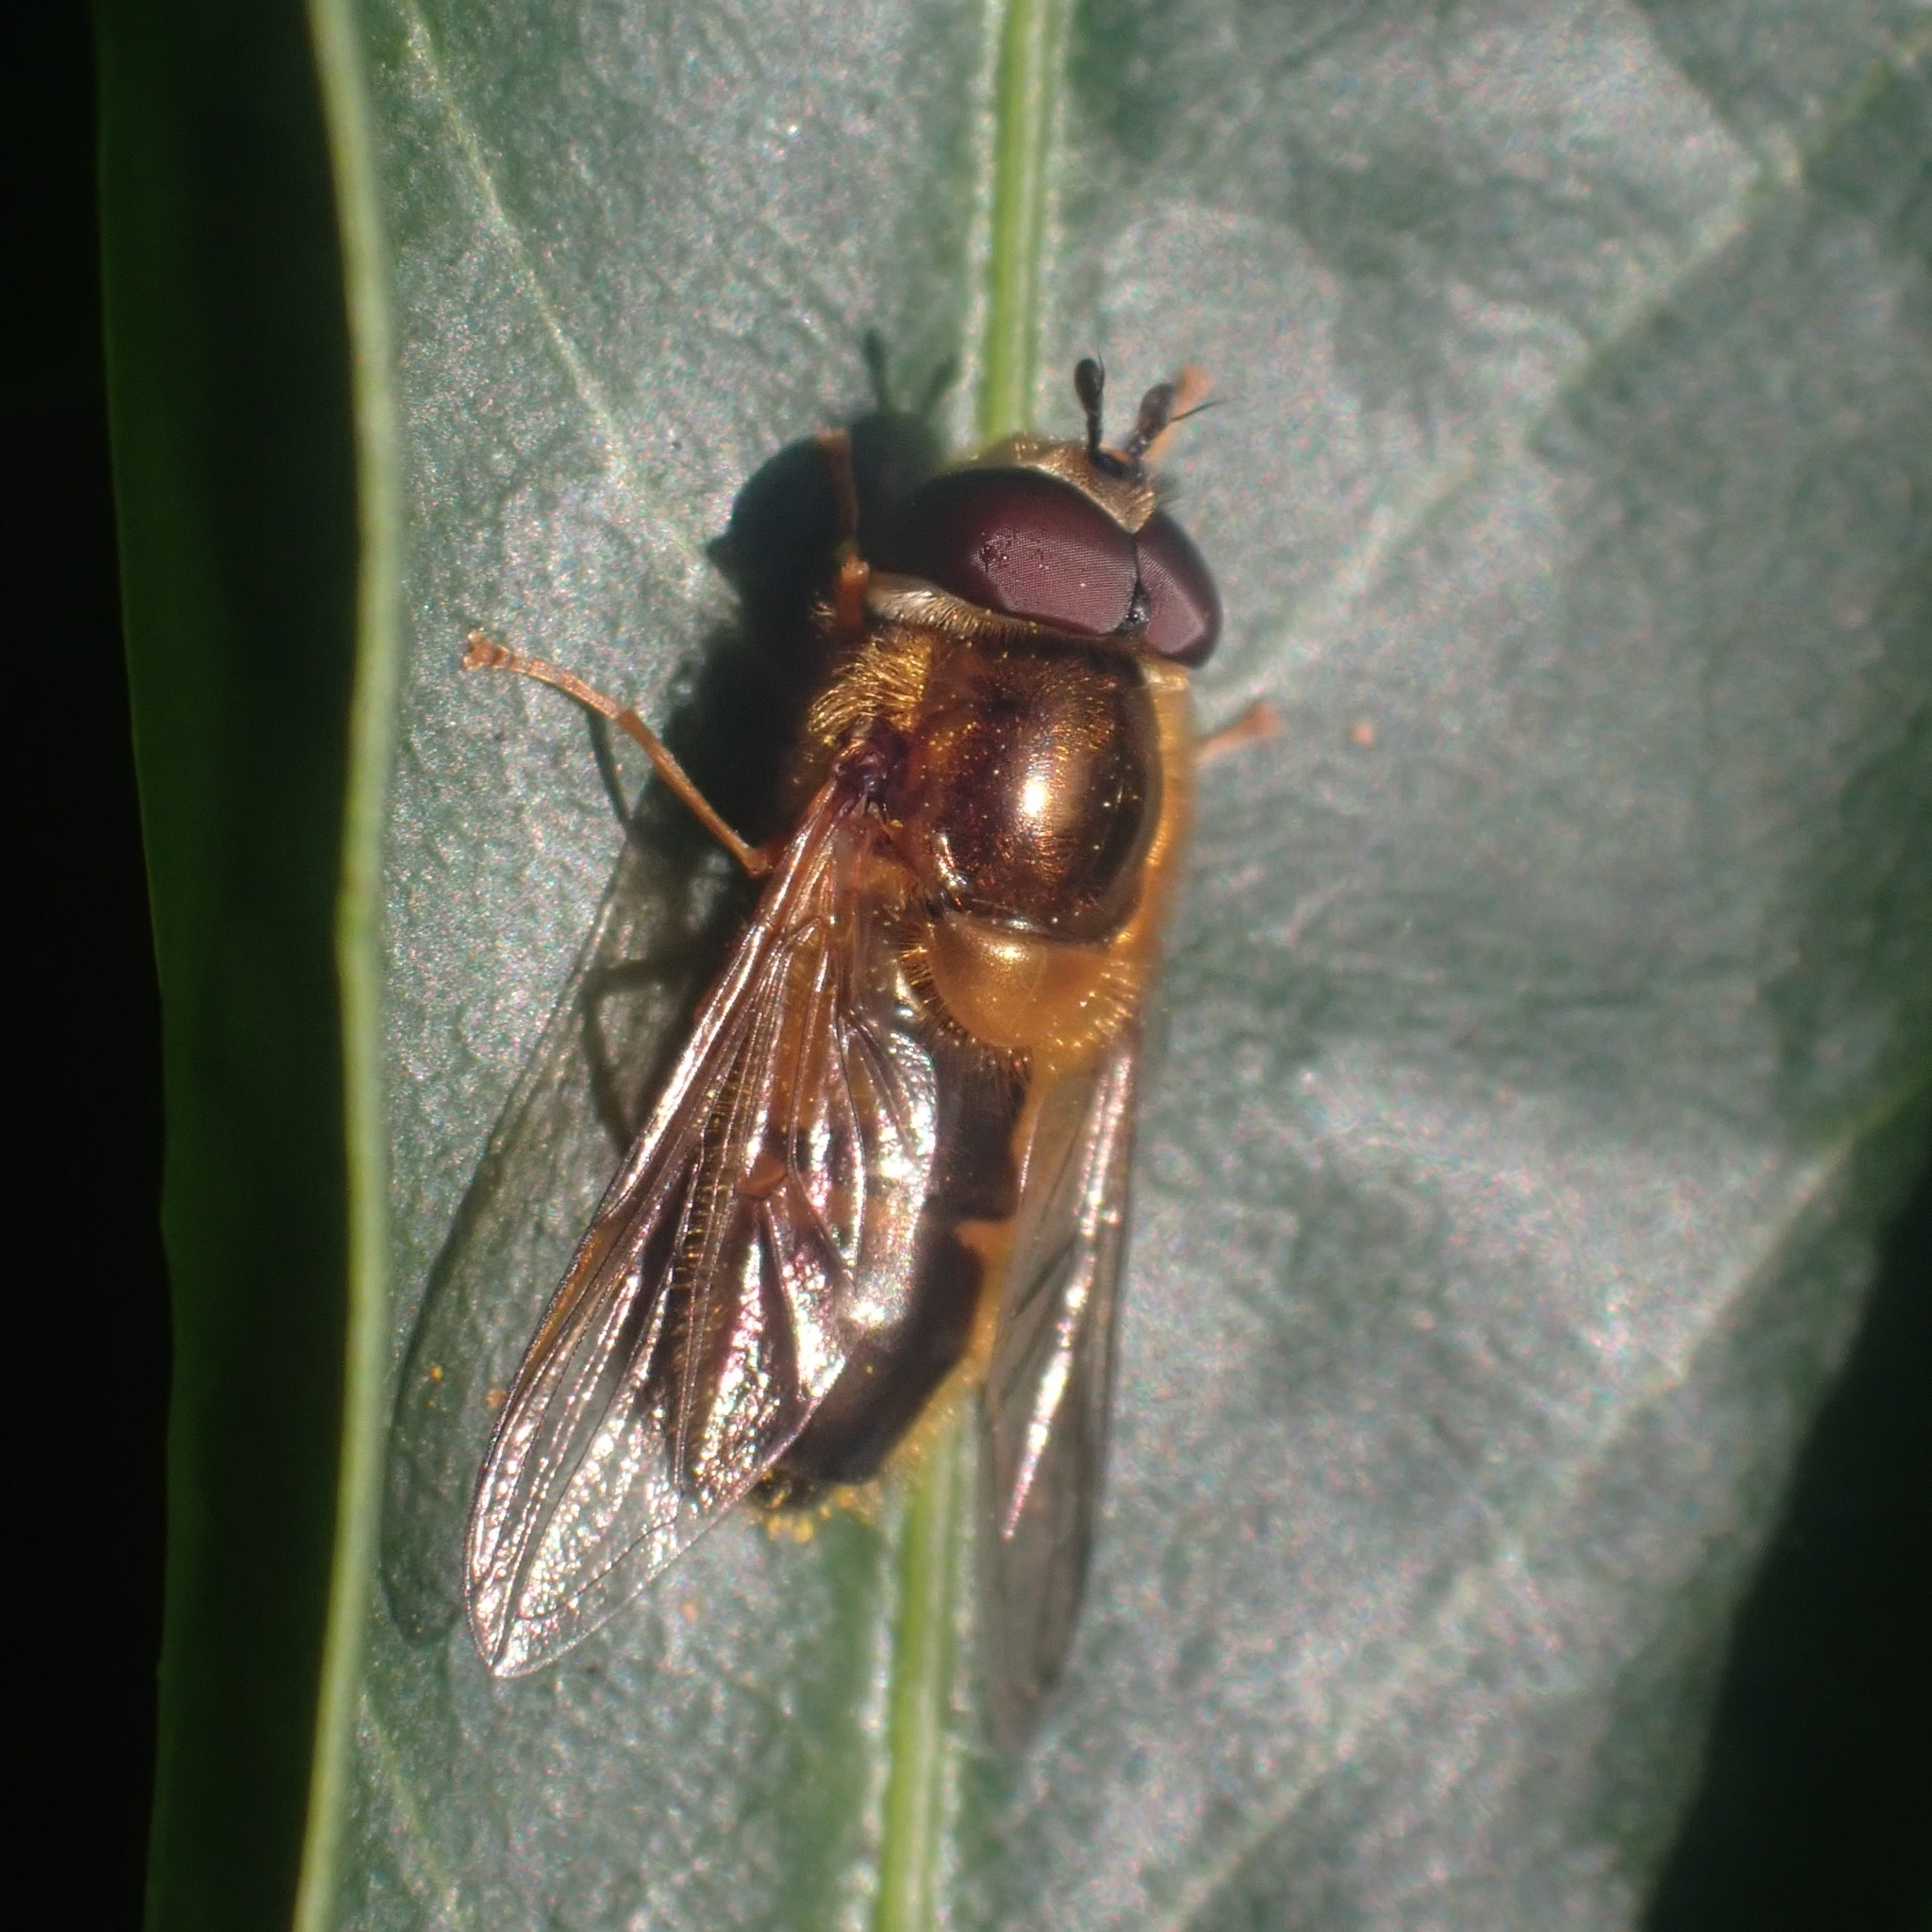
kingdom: Animalia
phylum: Arthropoda
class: Insecta
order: Diptera
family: Syrphidae
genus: Epistrophe
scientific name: Epistrophe eligans
